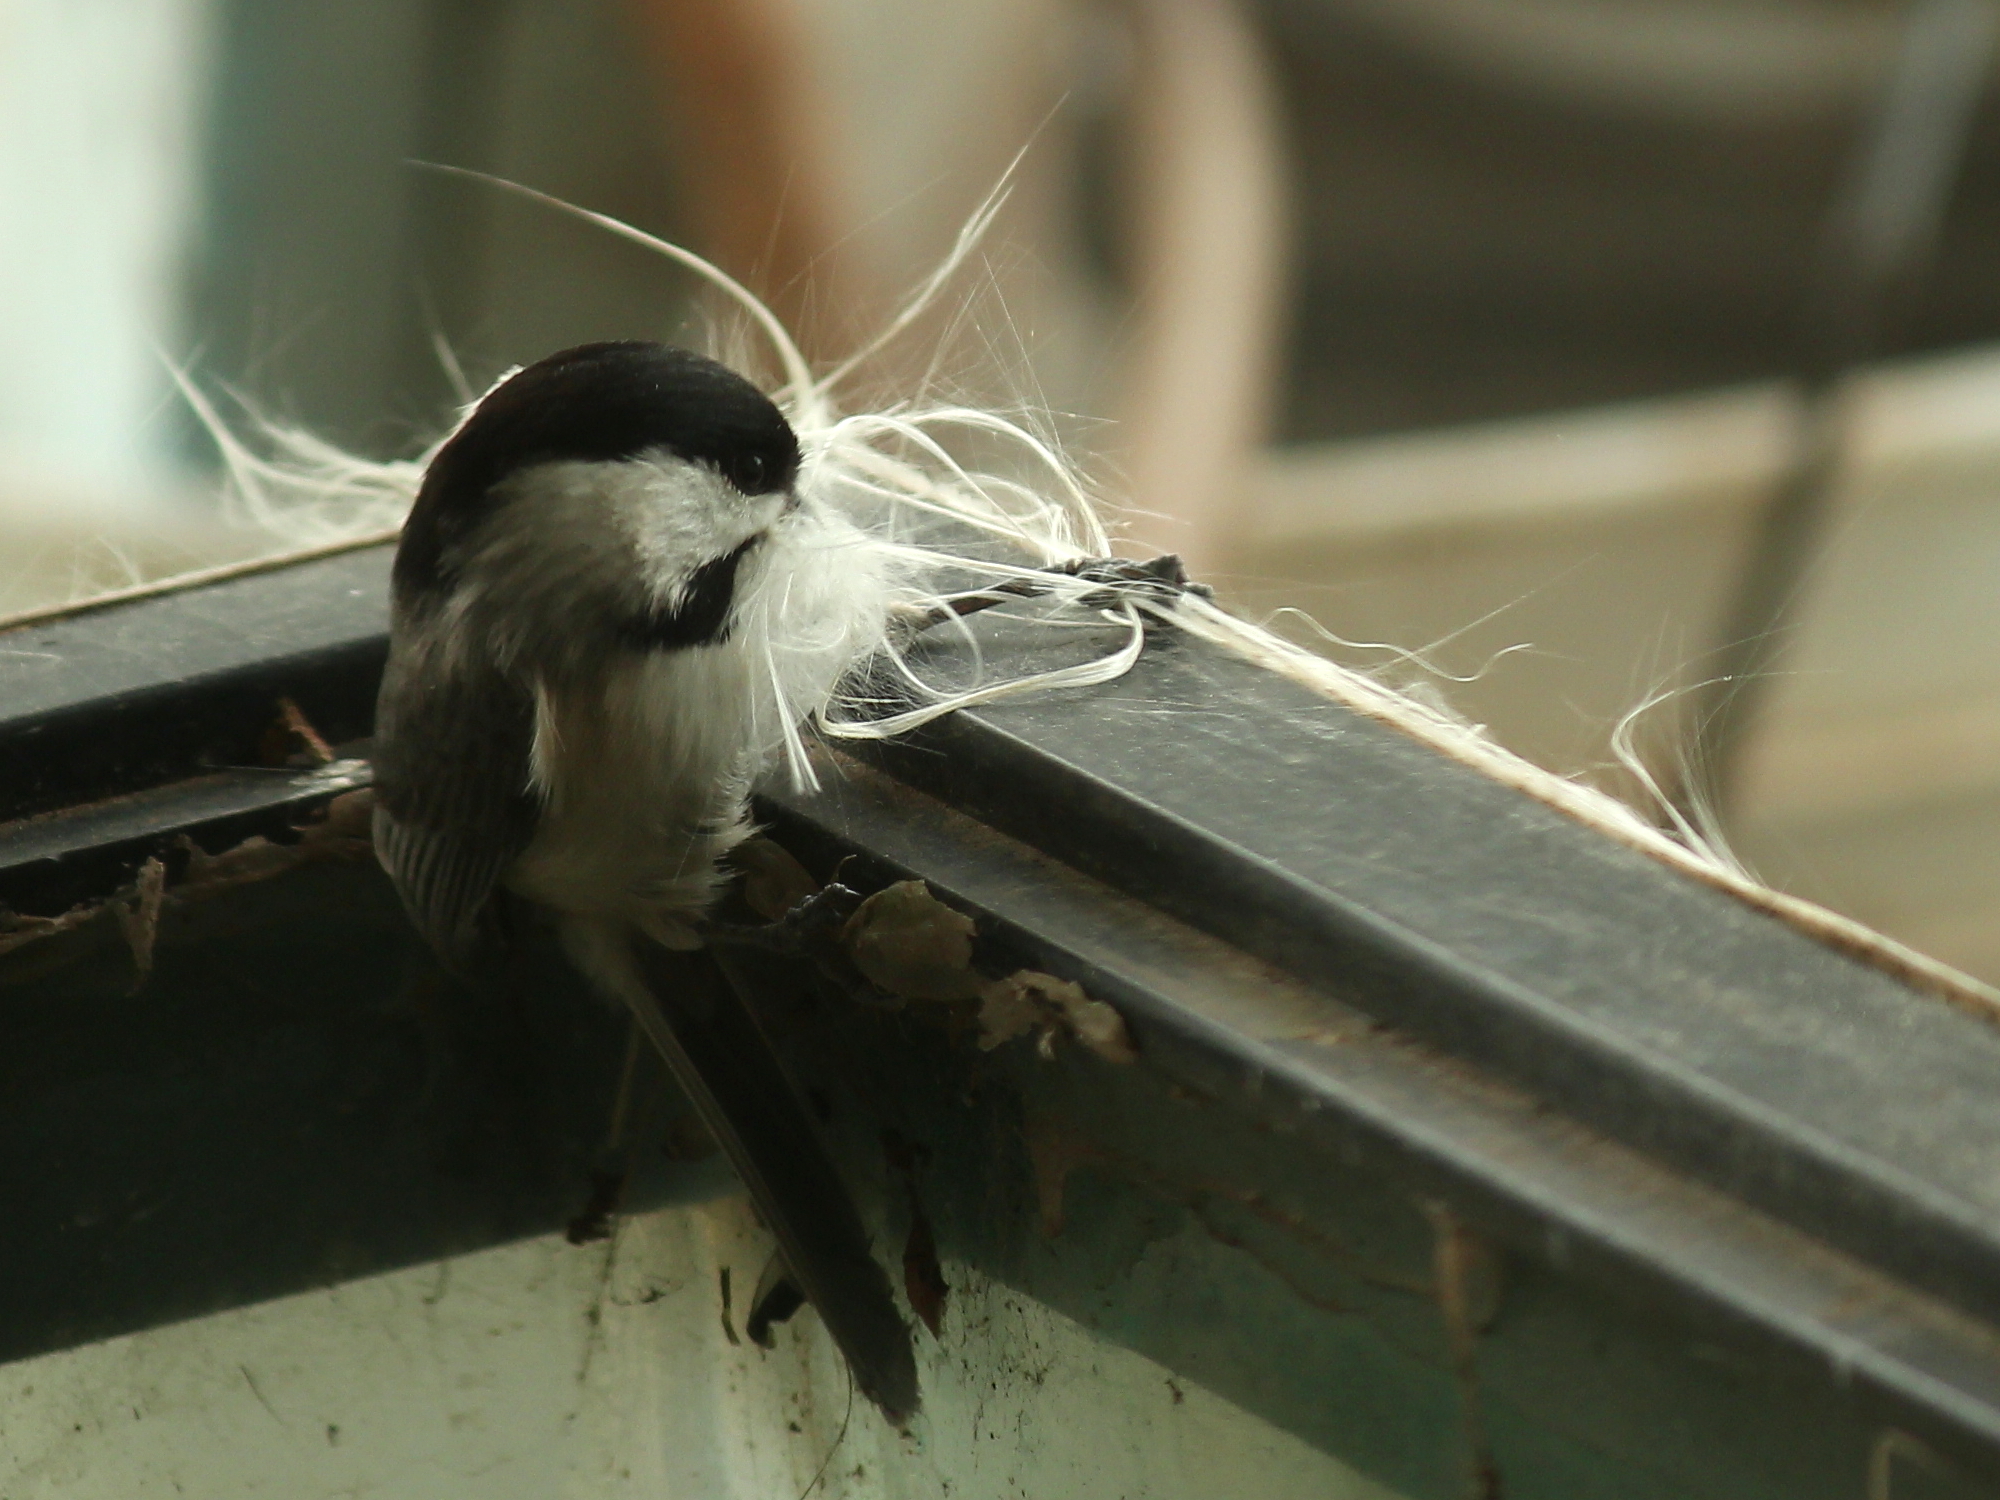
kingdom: Animalia
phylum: Chordata
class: Aves
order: Passeriformes
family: Paridae
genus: Poecile
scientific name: Poecile carolinensis
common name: Carolina chickadee
